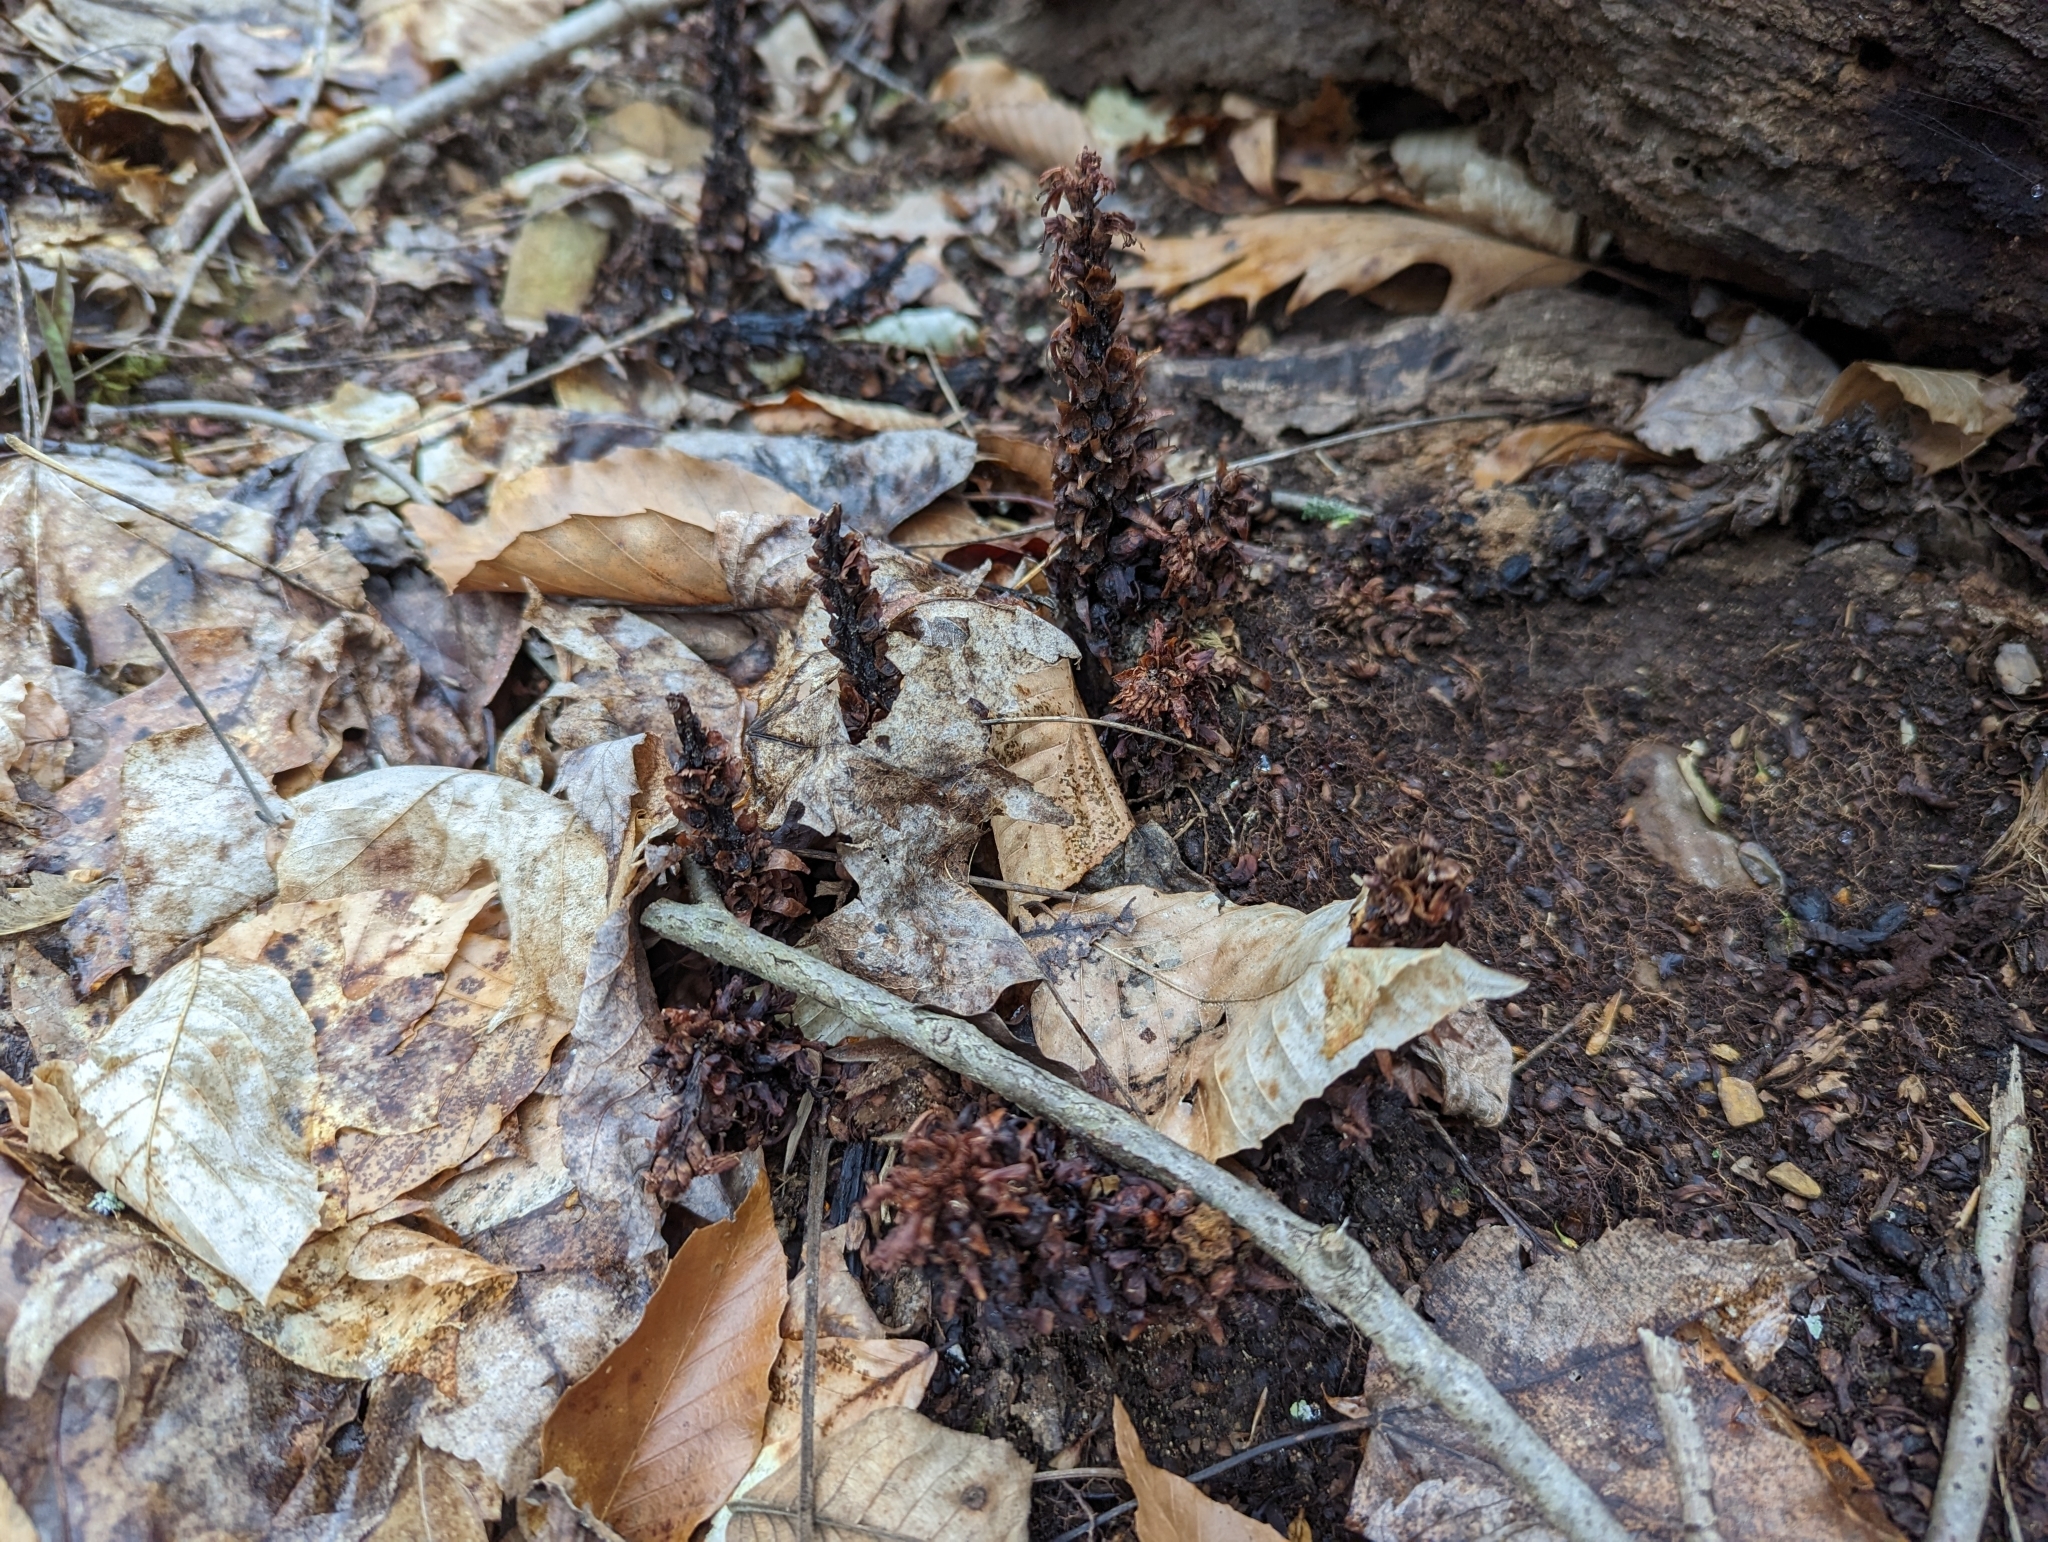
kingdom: Plantae
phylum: Tracheophyta
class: Magnoliopsida
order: Lamiales
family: Orobanchaceae
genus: Conopholis
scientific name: Conopholis americana
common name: American cancer-root
